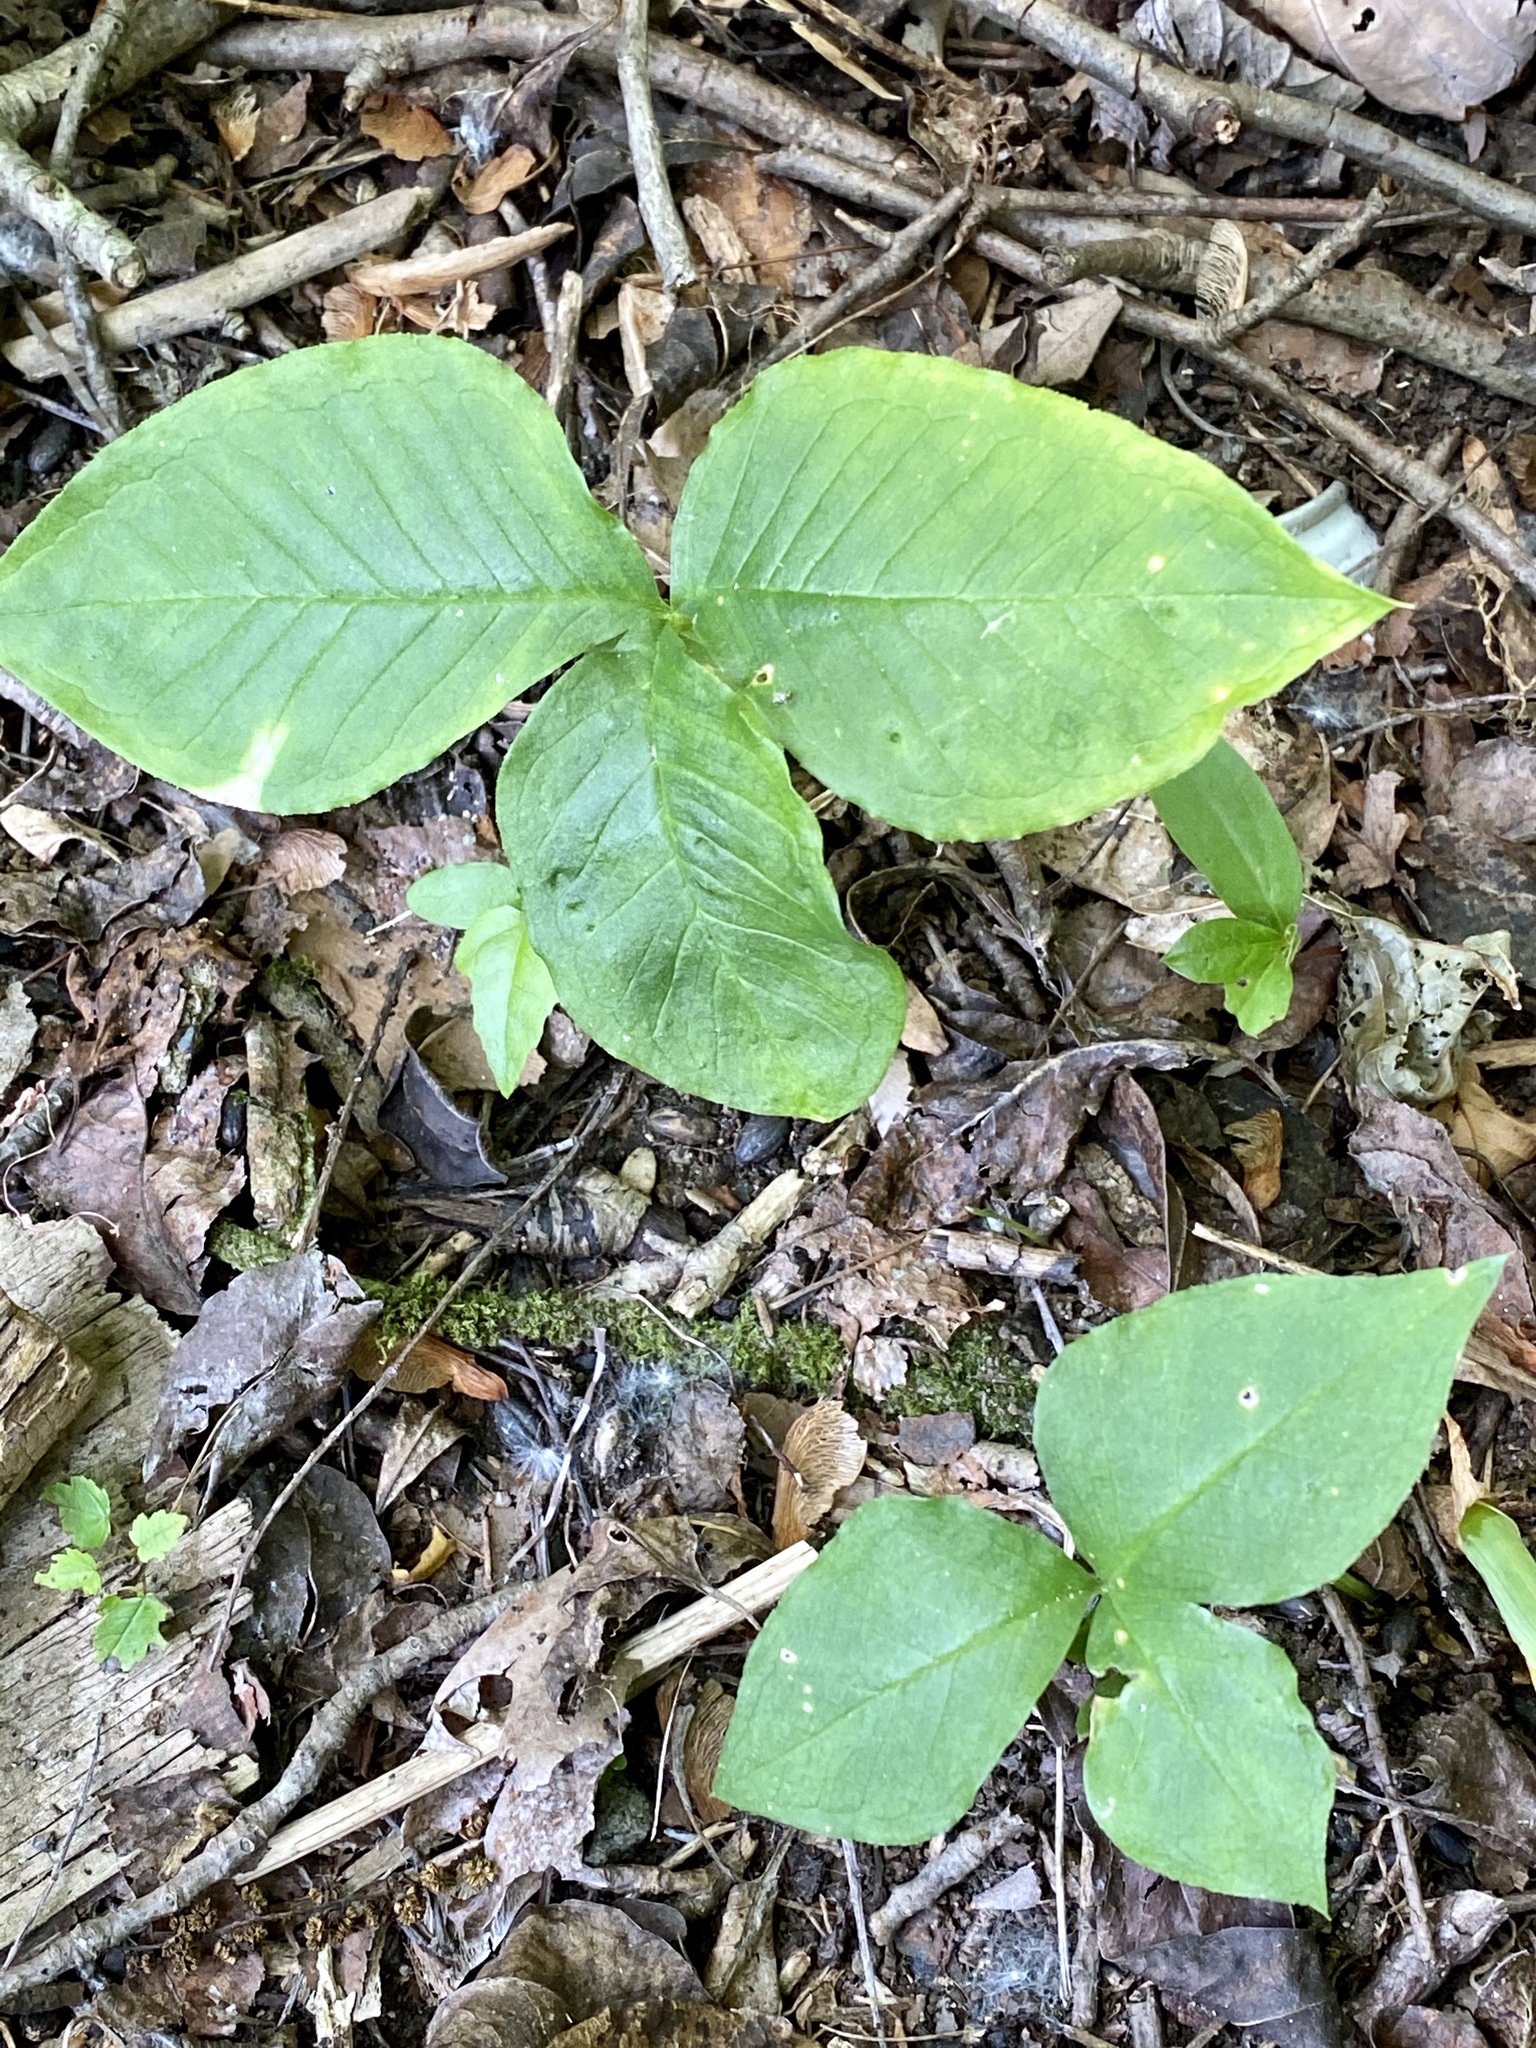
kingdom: Plantae
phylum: Tracheophyta
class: Liliopsida
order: Alismatales
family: Araceae
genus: Arisaema
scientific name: Arisaema triphyllum
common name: Jack-in-the-pulpit
